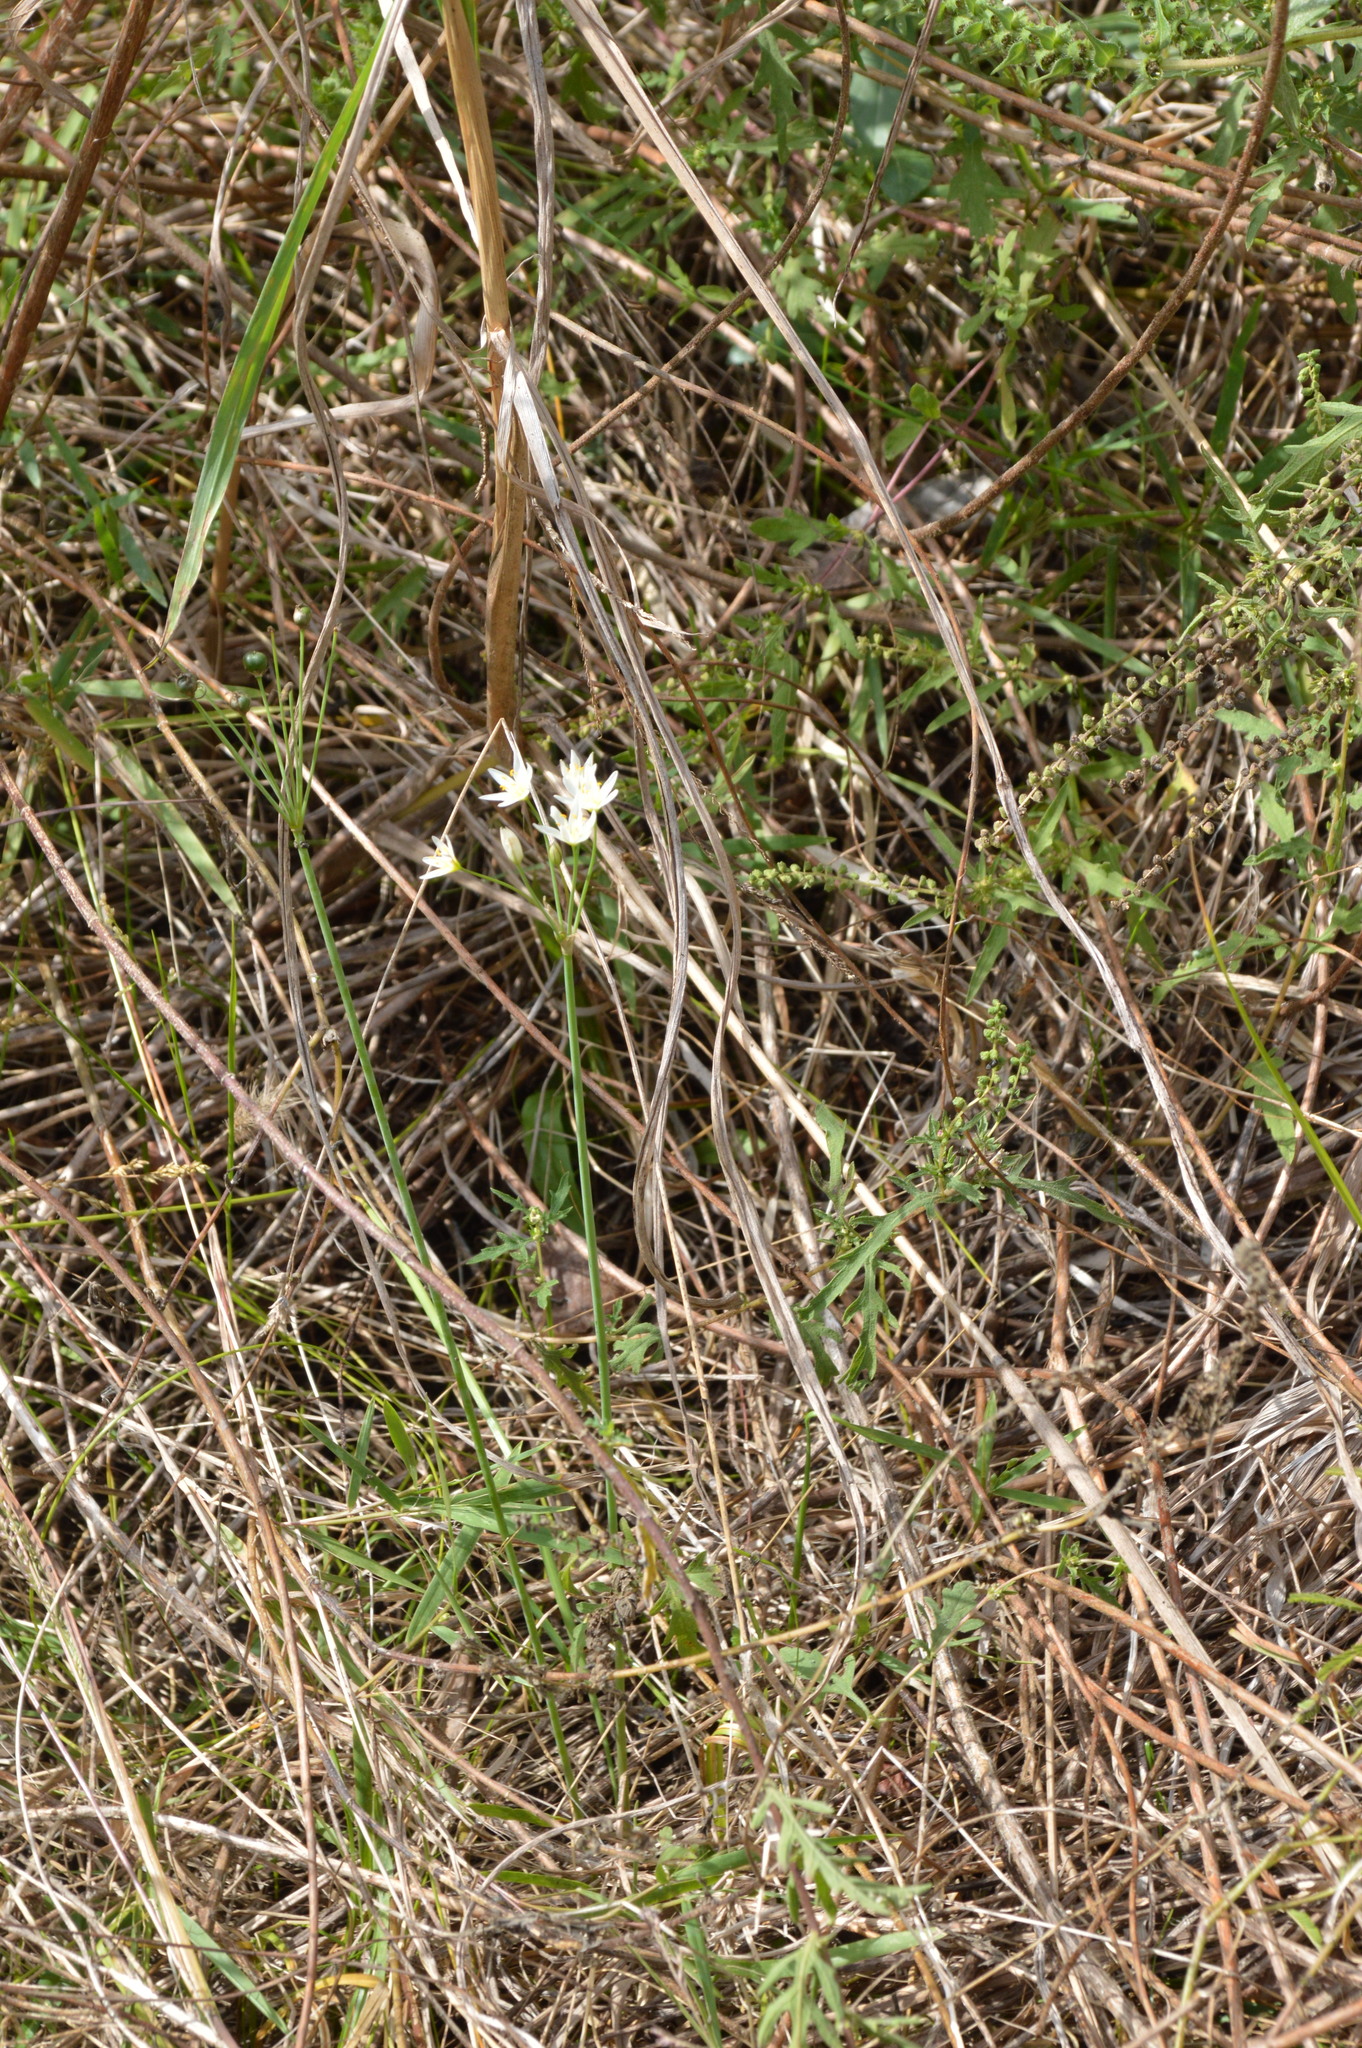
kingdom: Plantae
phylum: Tracheophyta
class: Liliopsida
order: Asparagales
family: Amaryllidaceae
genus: Nothoscordum
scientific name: Nothoscordum bivalve
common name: Crow-poison
